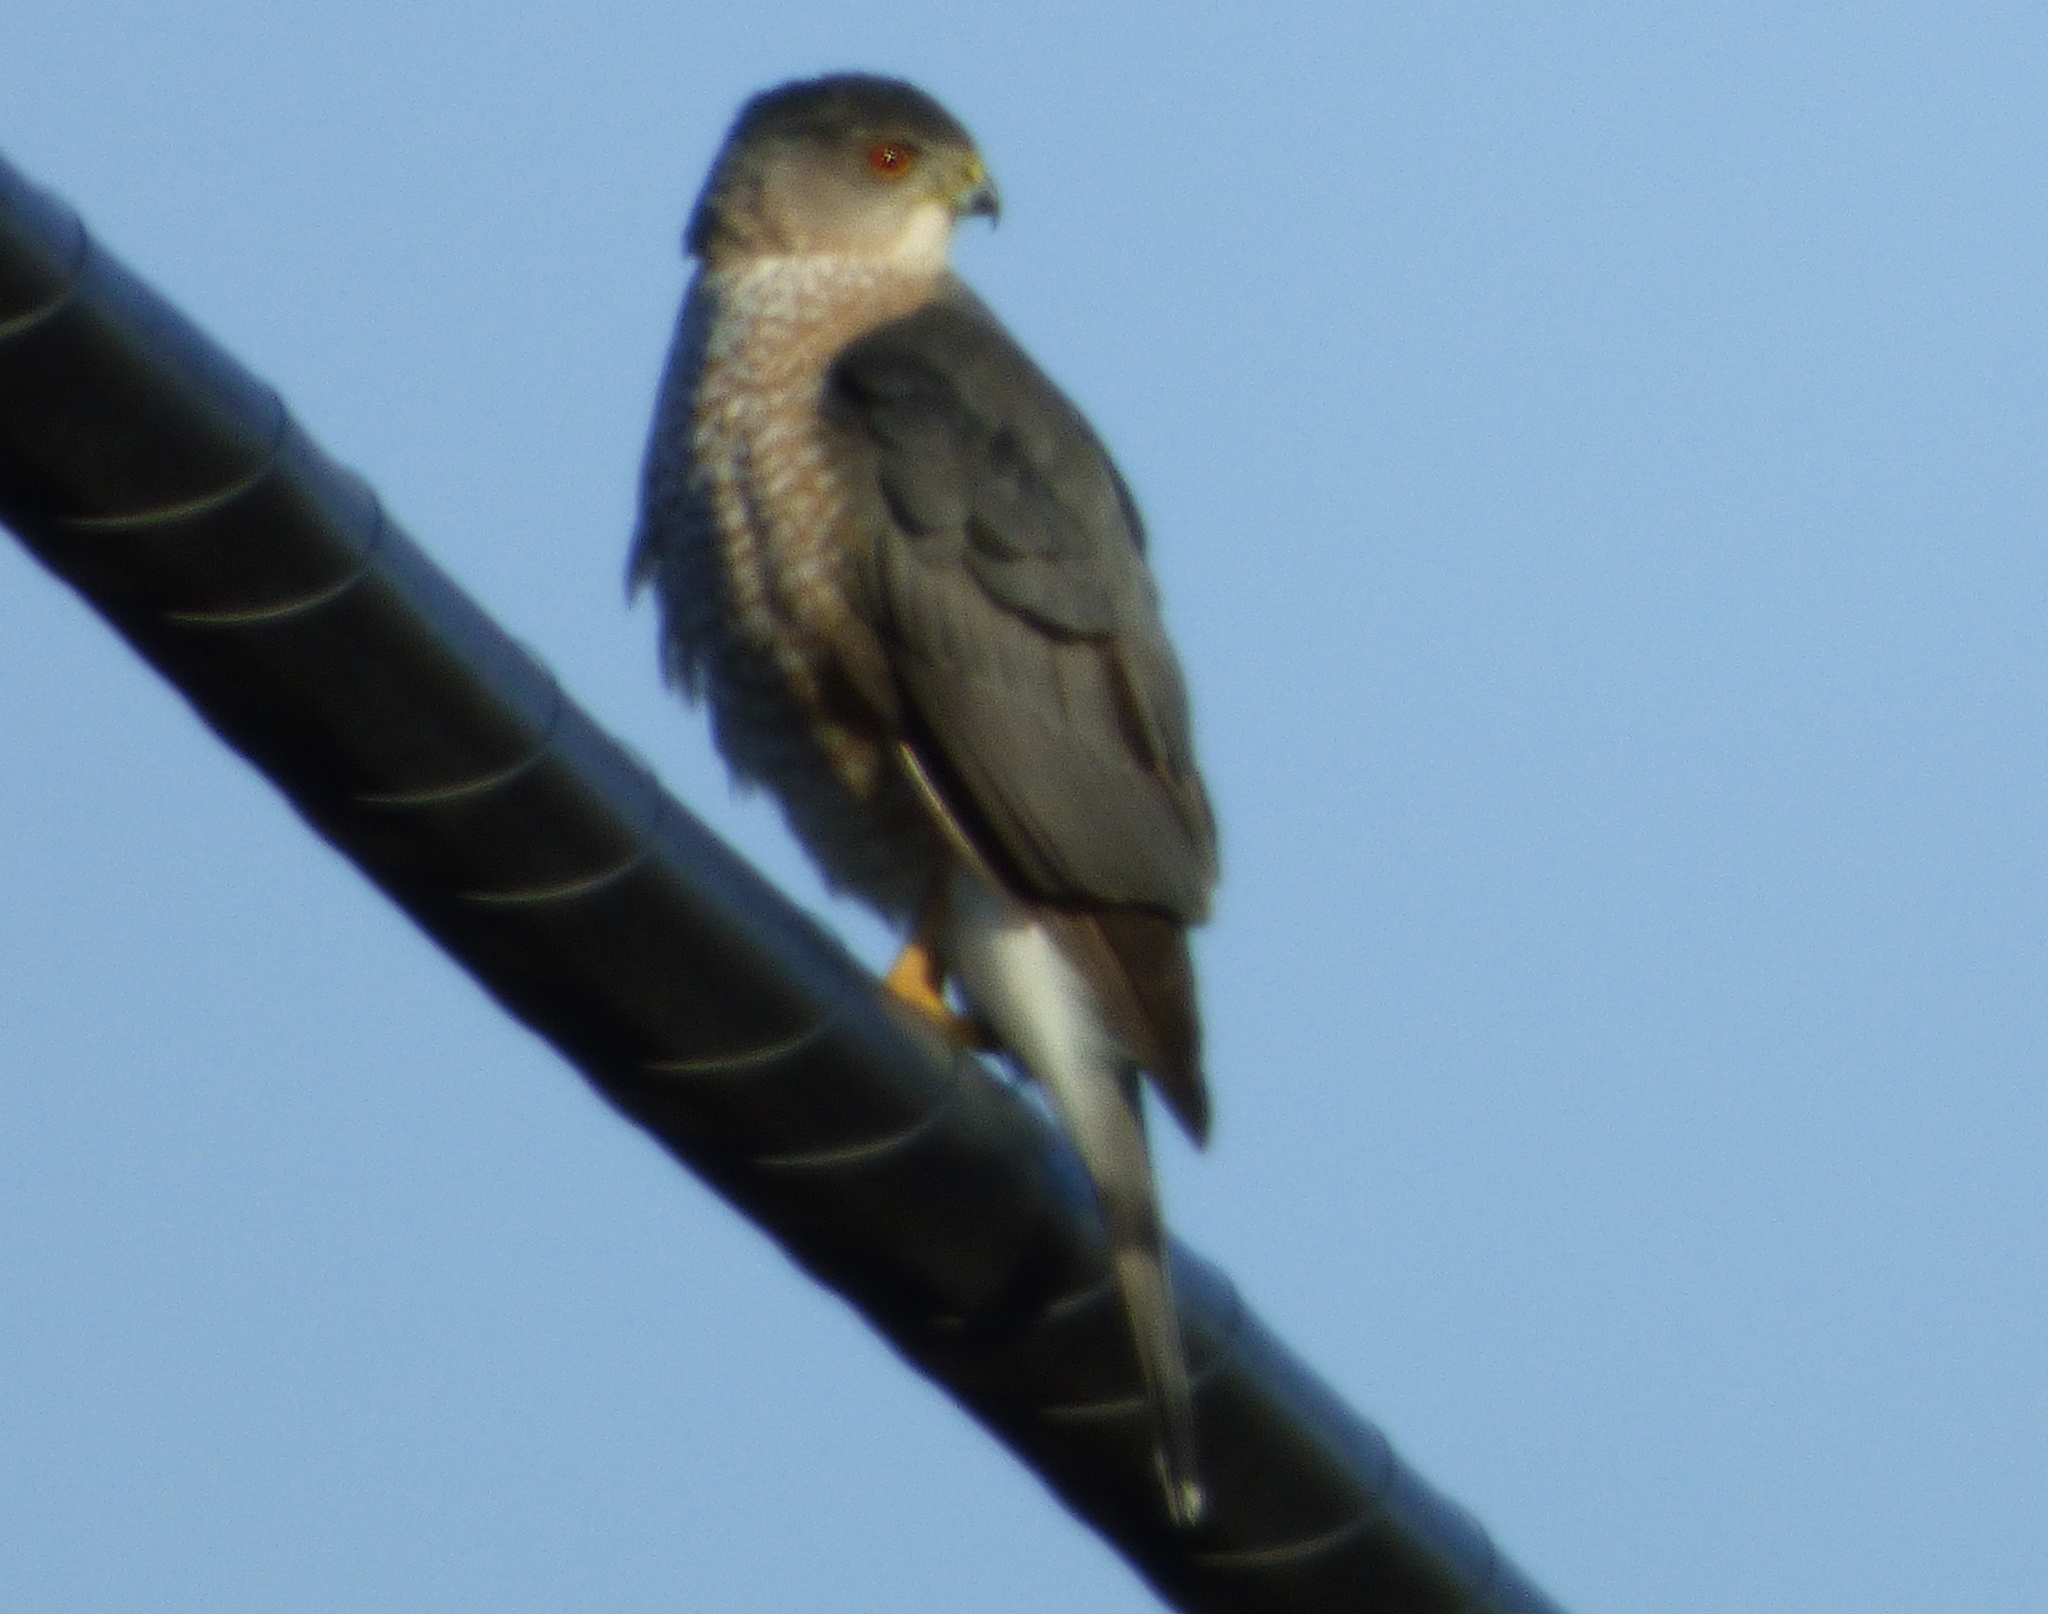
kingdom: Animalia
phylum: Chordata
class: Aves
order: Accipitriformes
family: Accipitridae
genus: Accipiter
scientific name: Accipiter cooperii
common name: Cooper's hawk
